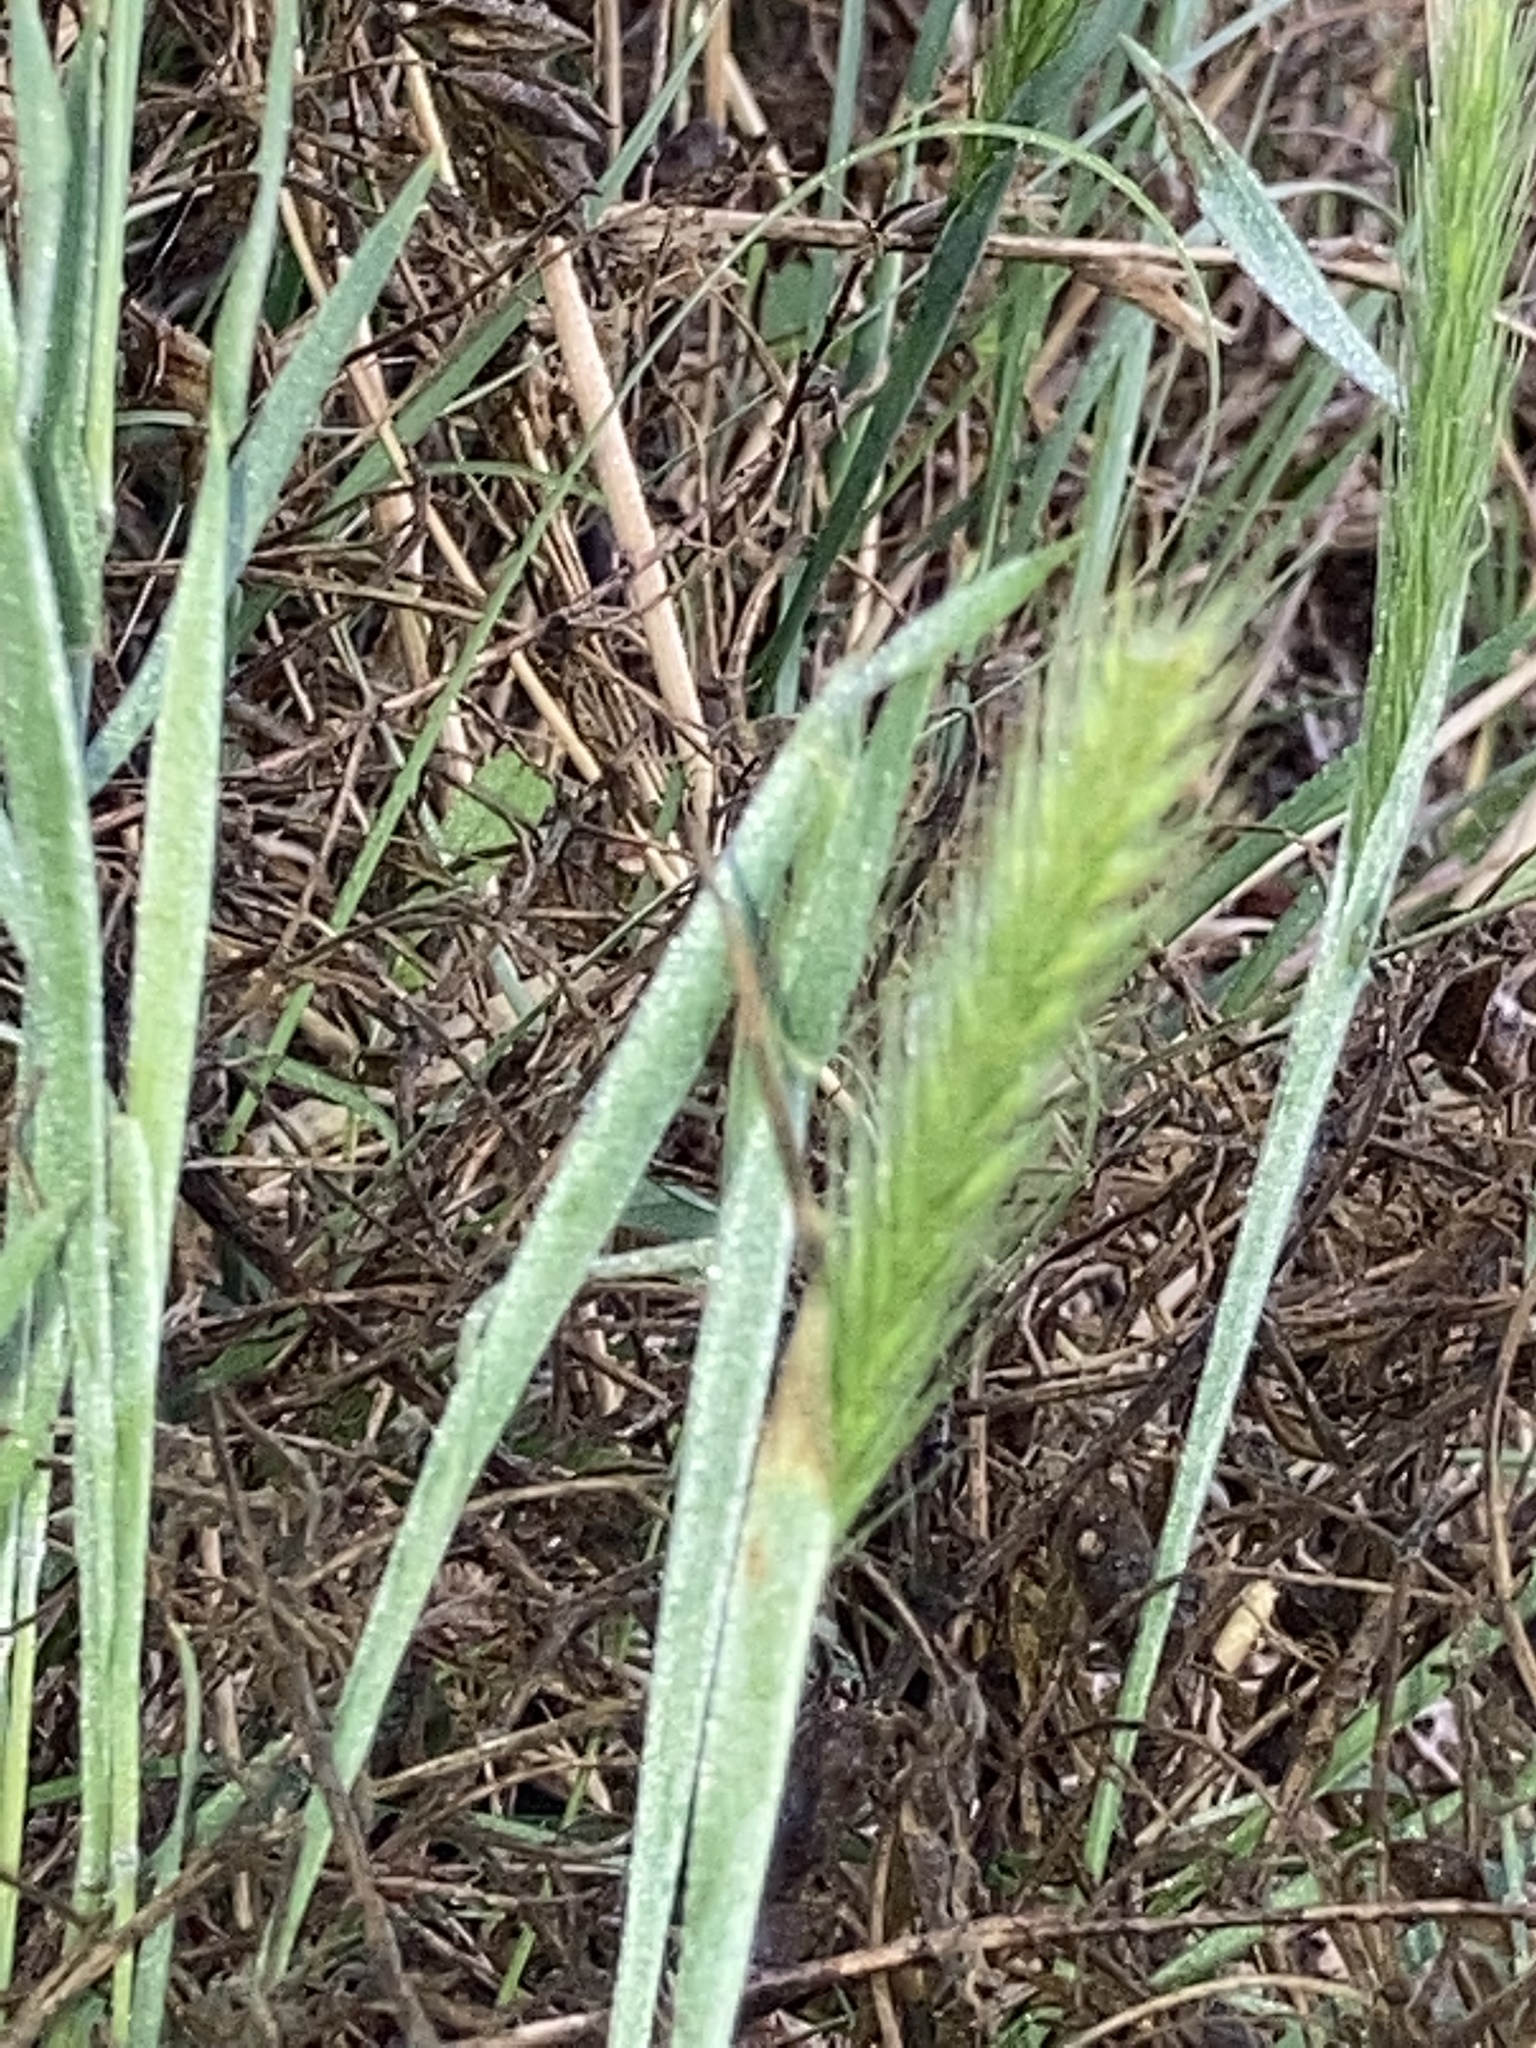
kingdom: Plantae
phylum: Tracheophyta
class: Liliopsida
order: Poales
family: Poaceae
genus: Hordeum
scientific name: Hordeum pusillum
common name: Little barley
